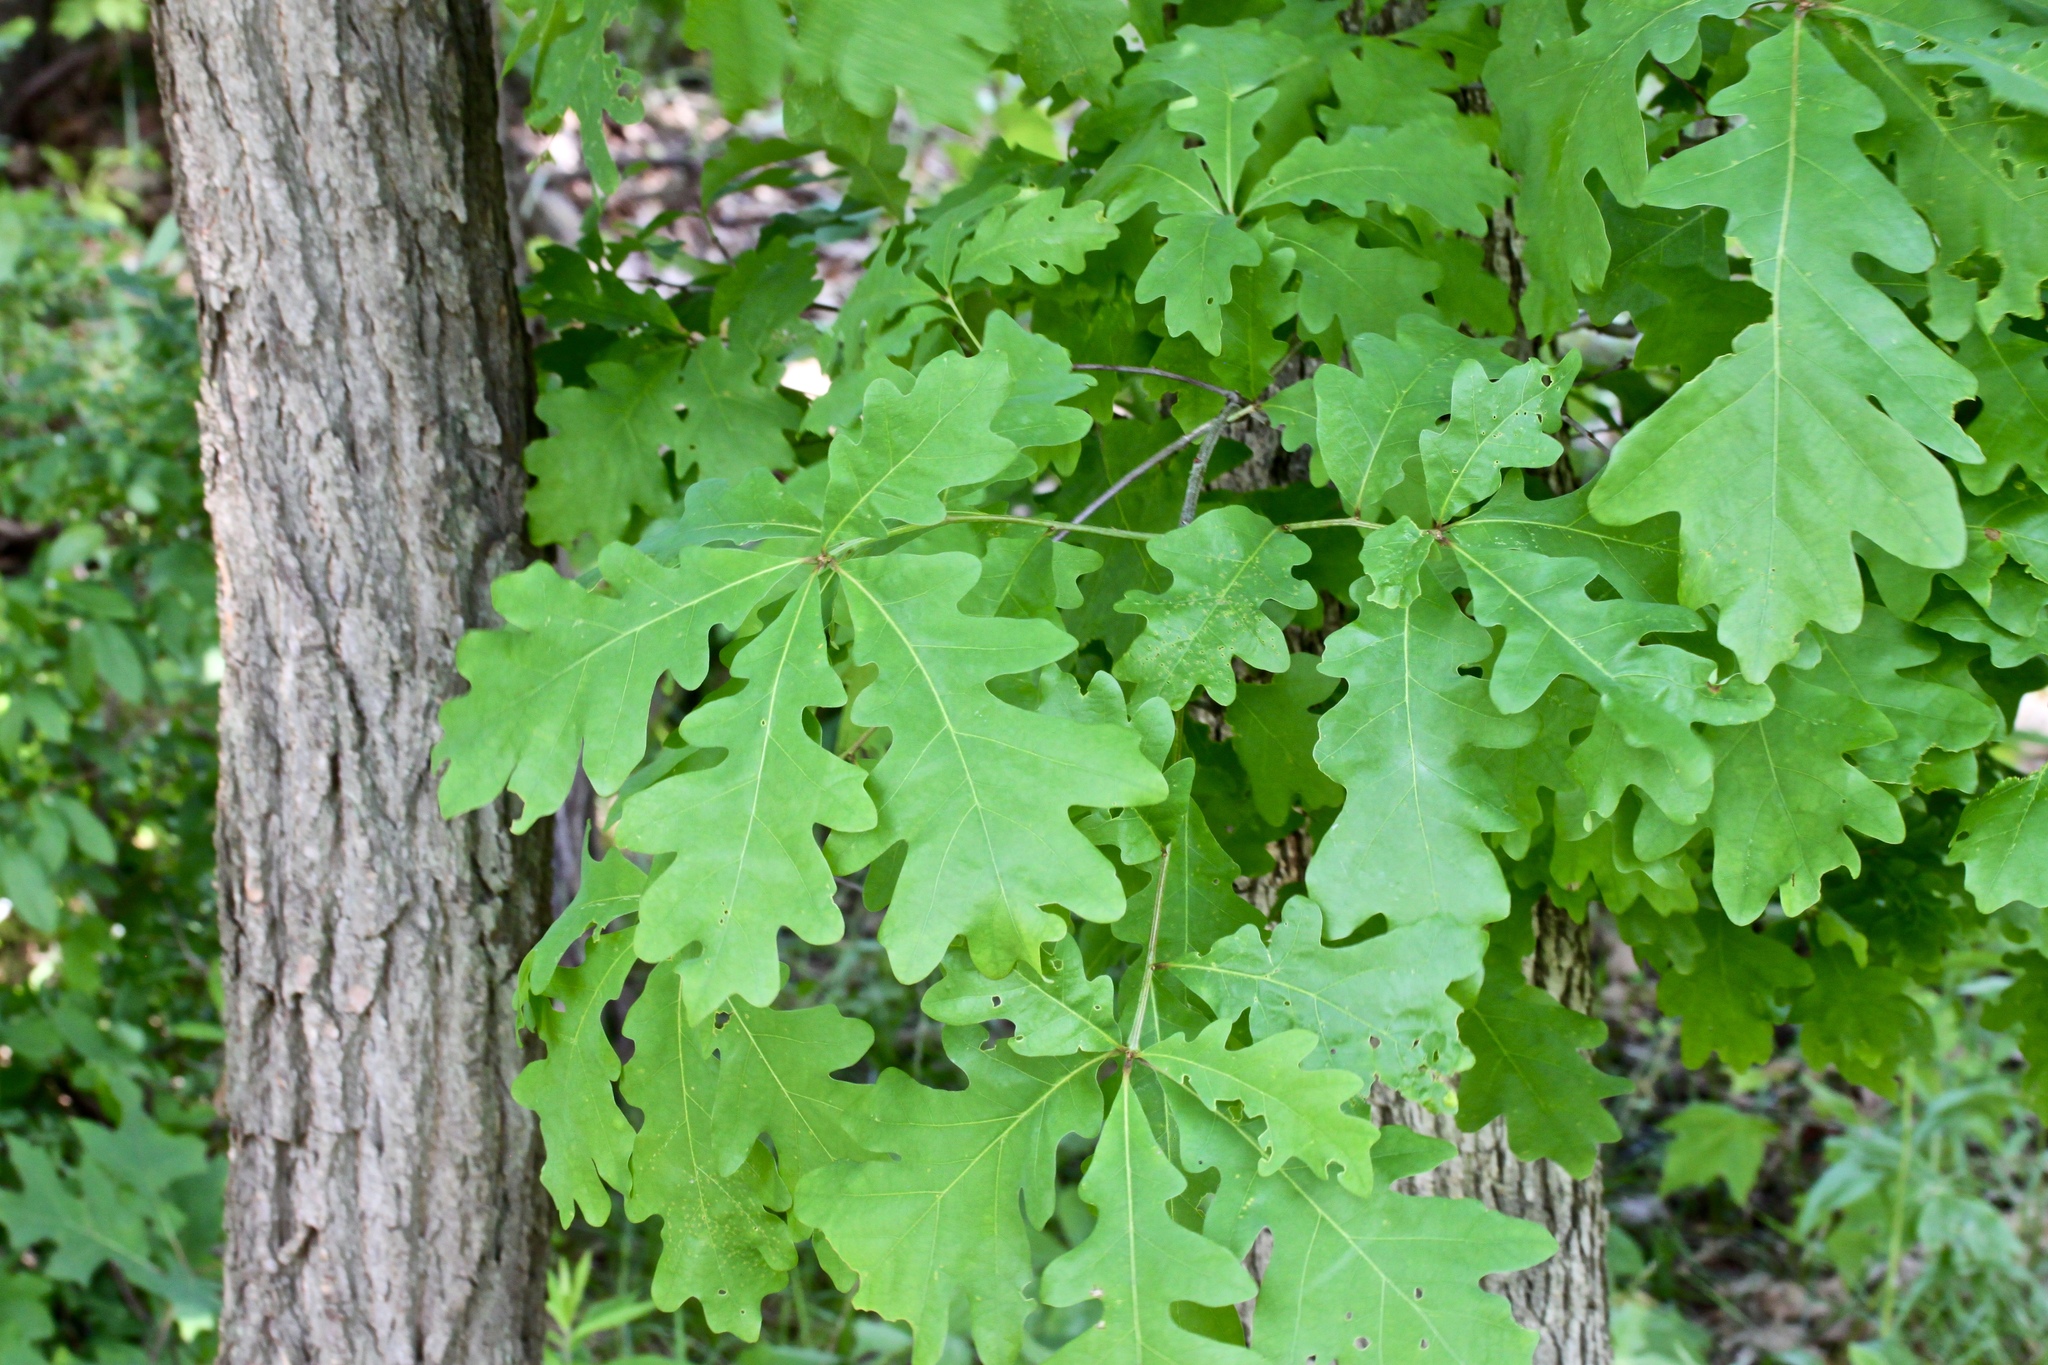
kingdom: Plantae
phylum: Tracheophyta
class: Magnoliopsida
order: Fagales
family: Fagaceae
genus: Quercus
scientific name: Quercus alba
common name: White oak
